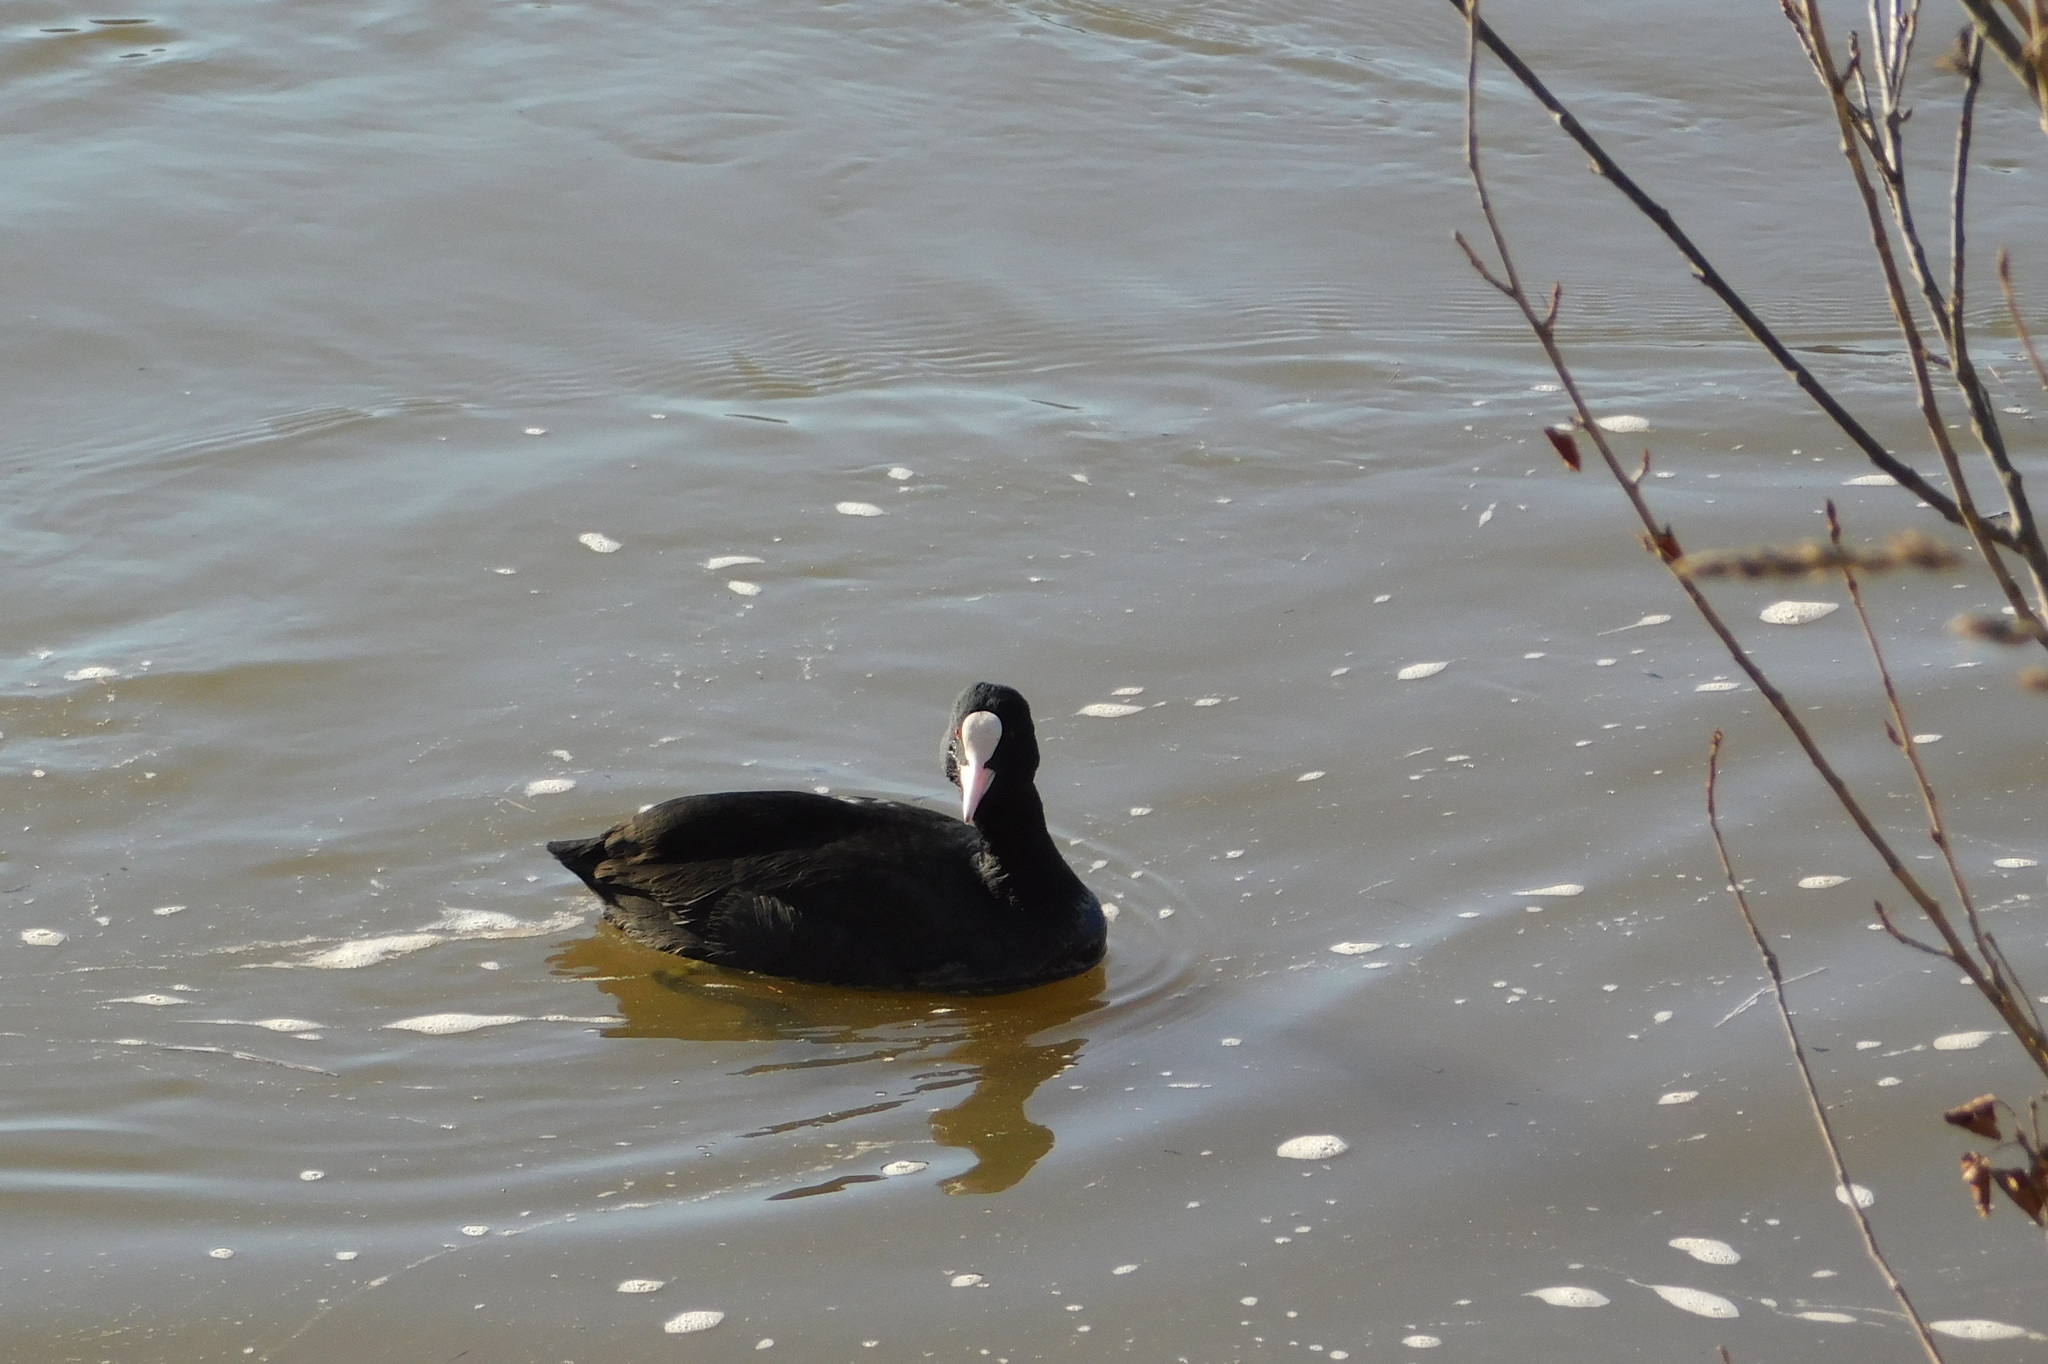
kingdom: Animalia
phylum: Chordata
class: Aves
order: Gruiformes
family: Rallidae
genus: Fulica
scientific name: Fulica atra
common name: Eurasian coot
